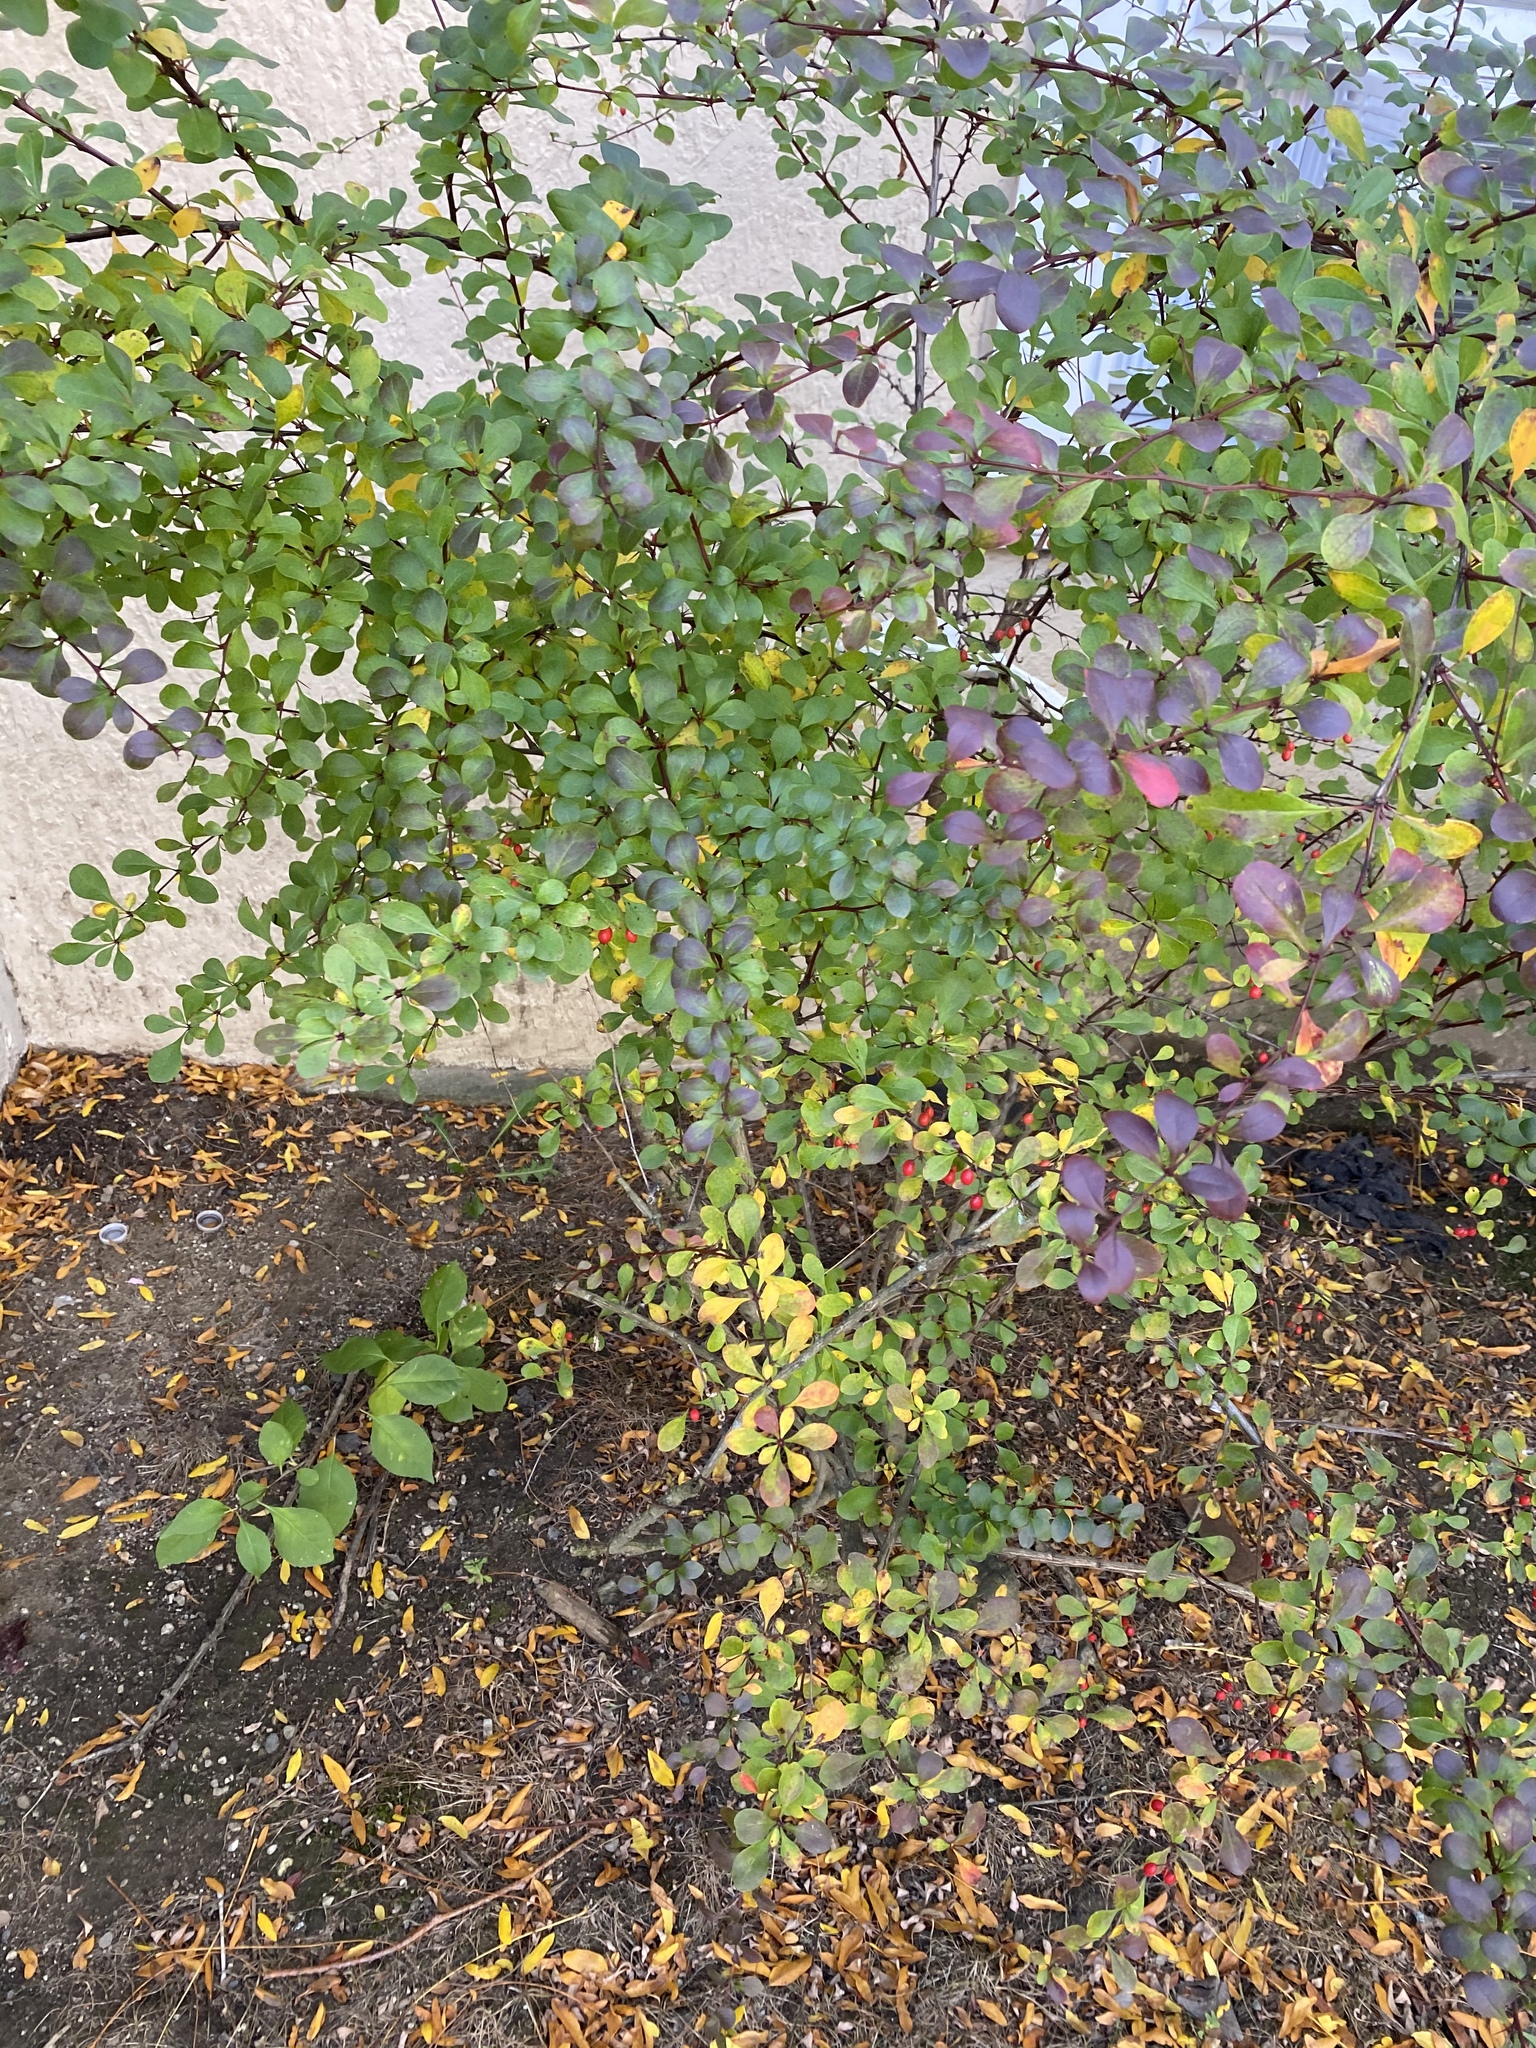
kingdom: Plantae
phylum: Tracheophyta
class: Magnoliopsida
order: Ranunculales
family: Berberidaceae
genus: Berberis
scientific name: Berberis thunbergii
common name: Japanese barberry
